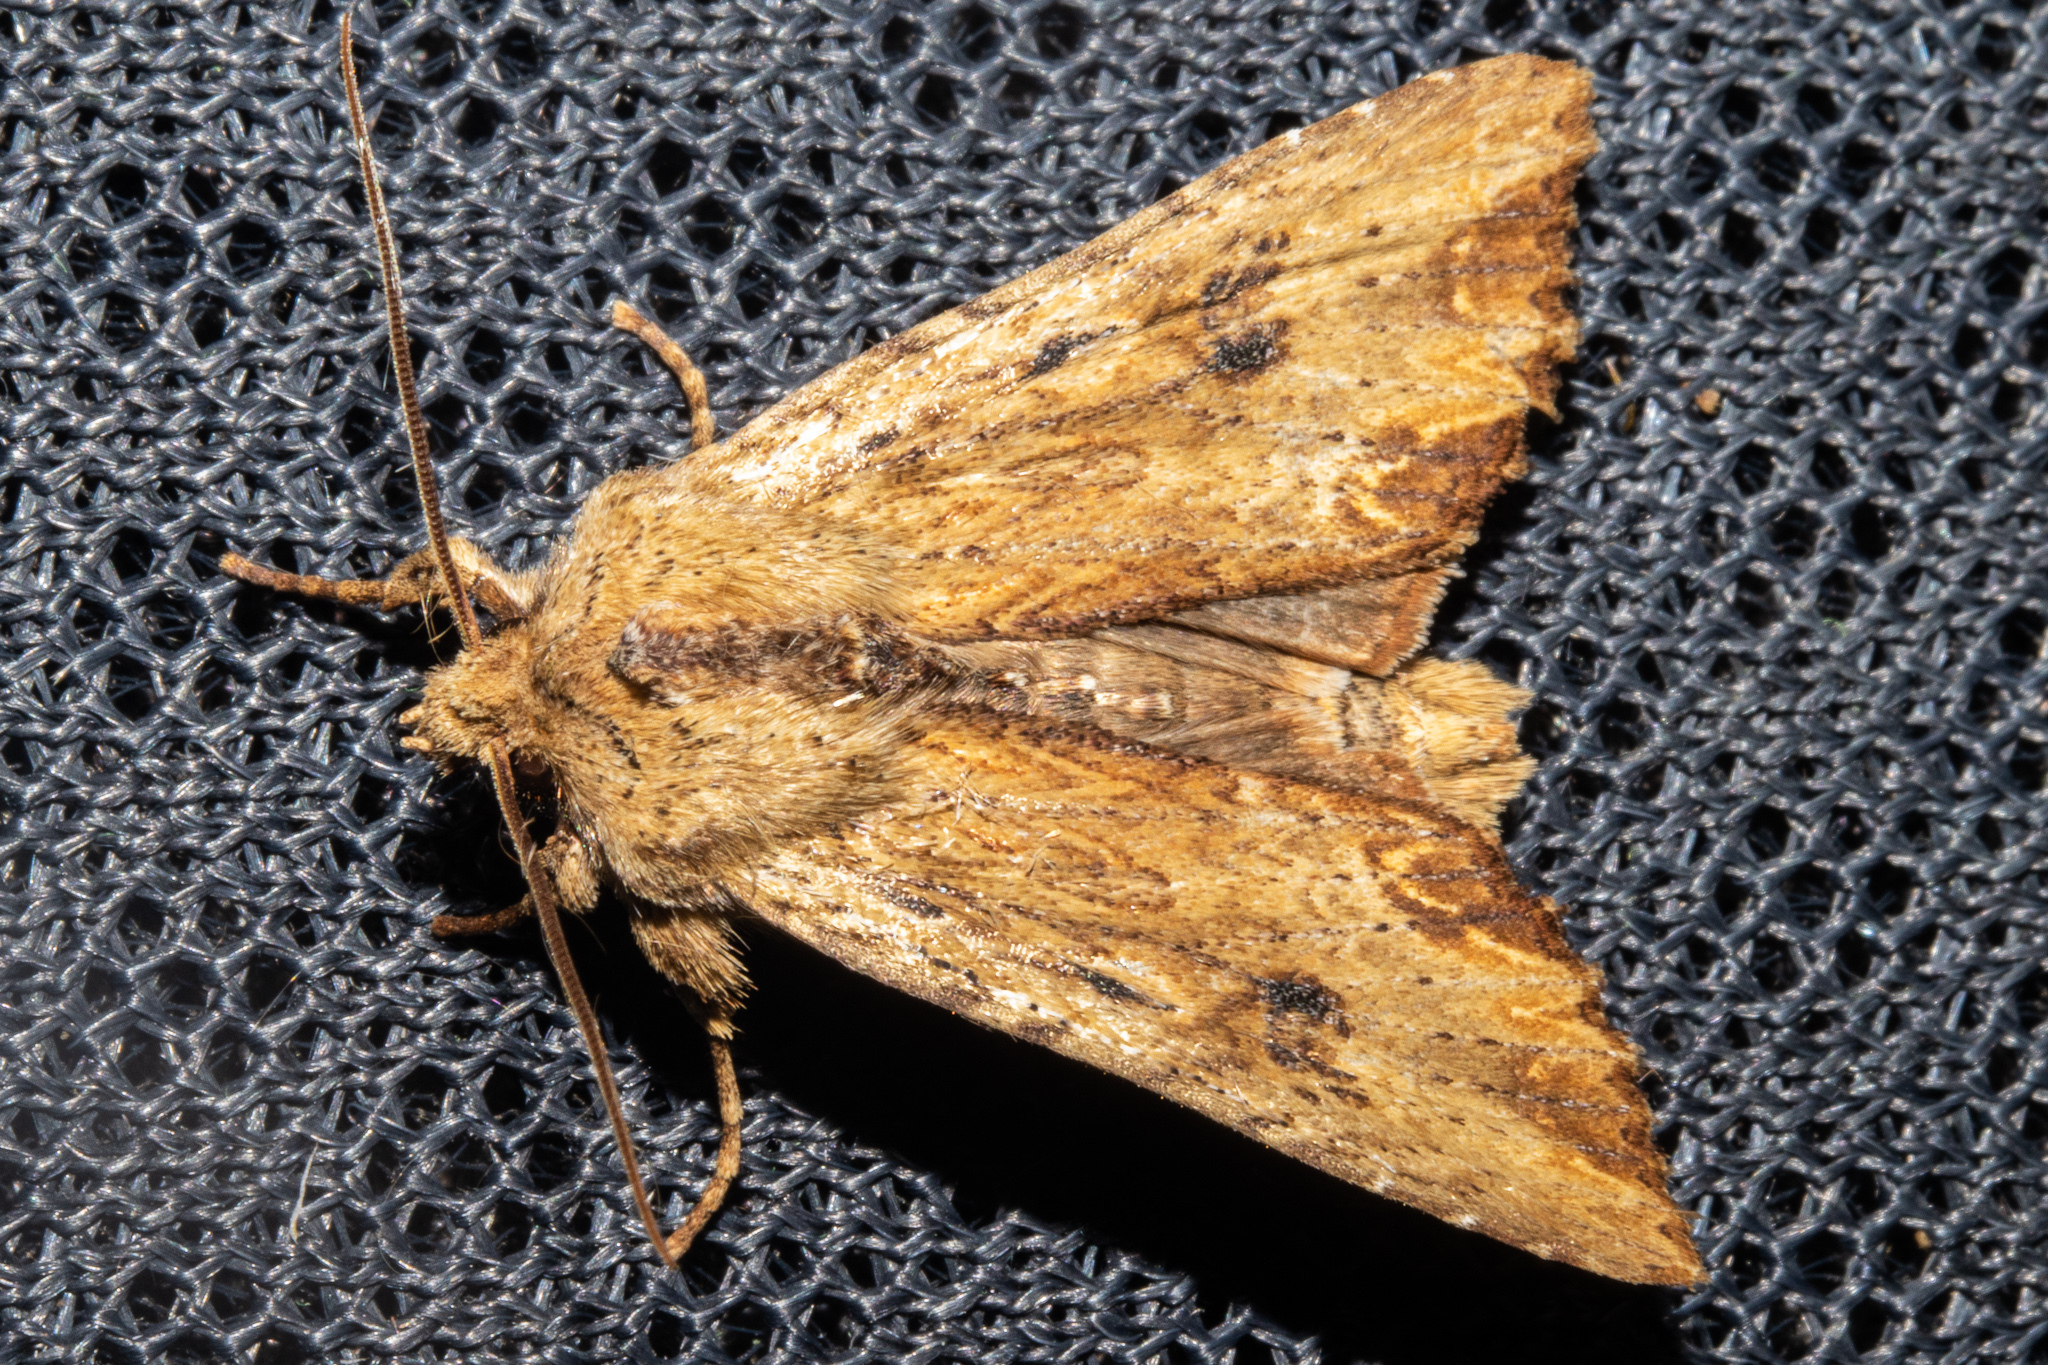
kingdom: Animalia
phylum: Arthropoda
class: Insecta
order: Lepidoptera
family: Noctuidae
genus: Ichneutica
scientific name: Ichneutica
